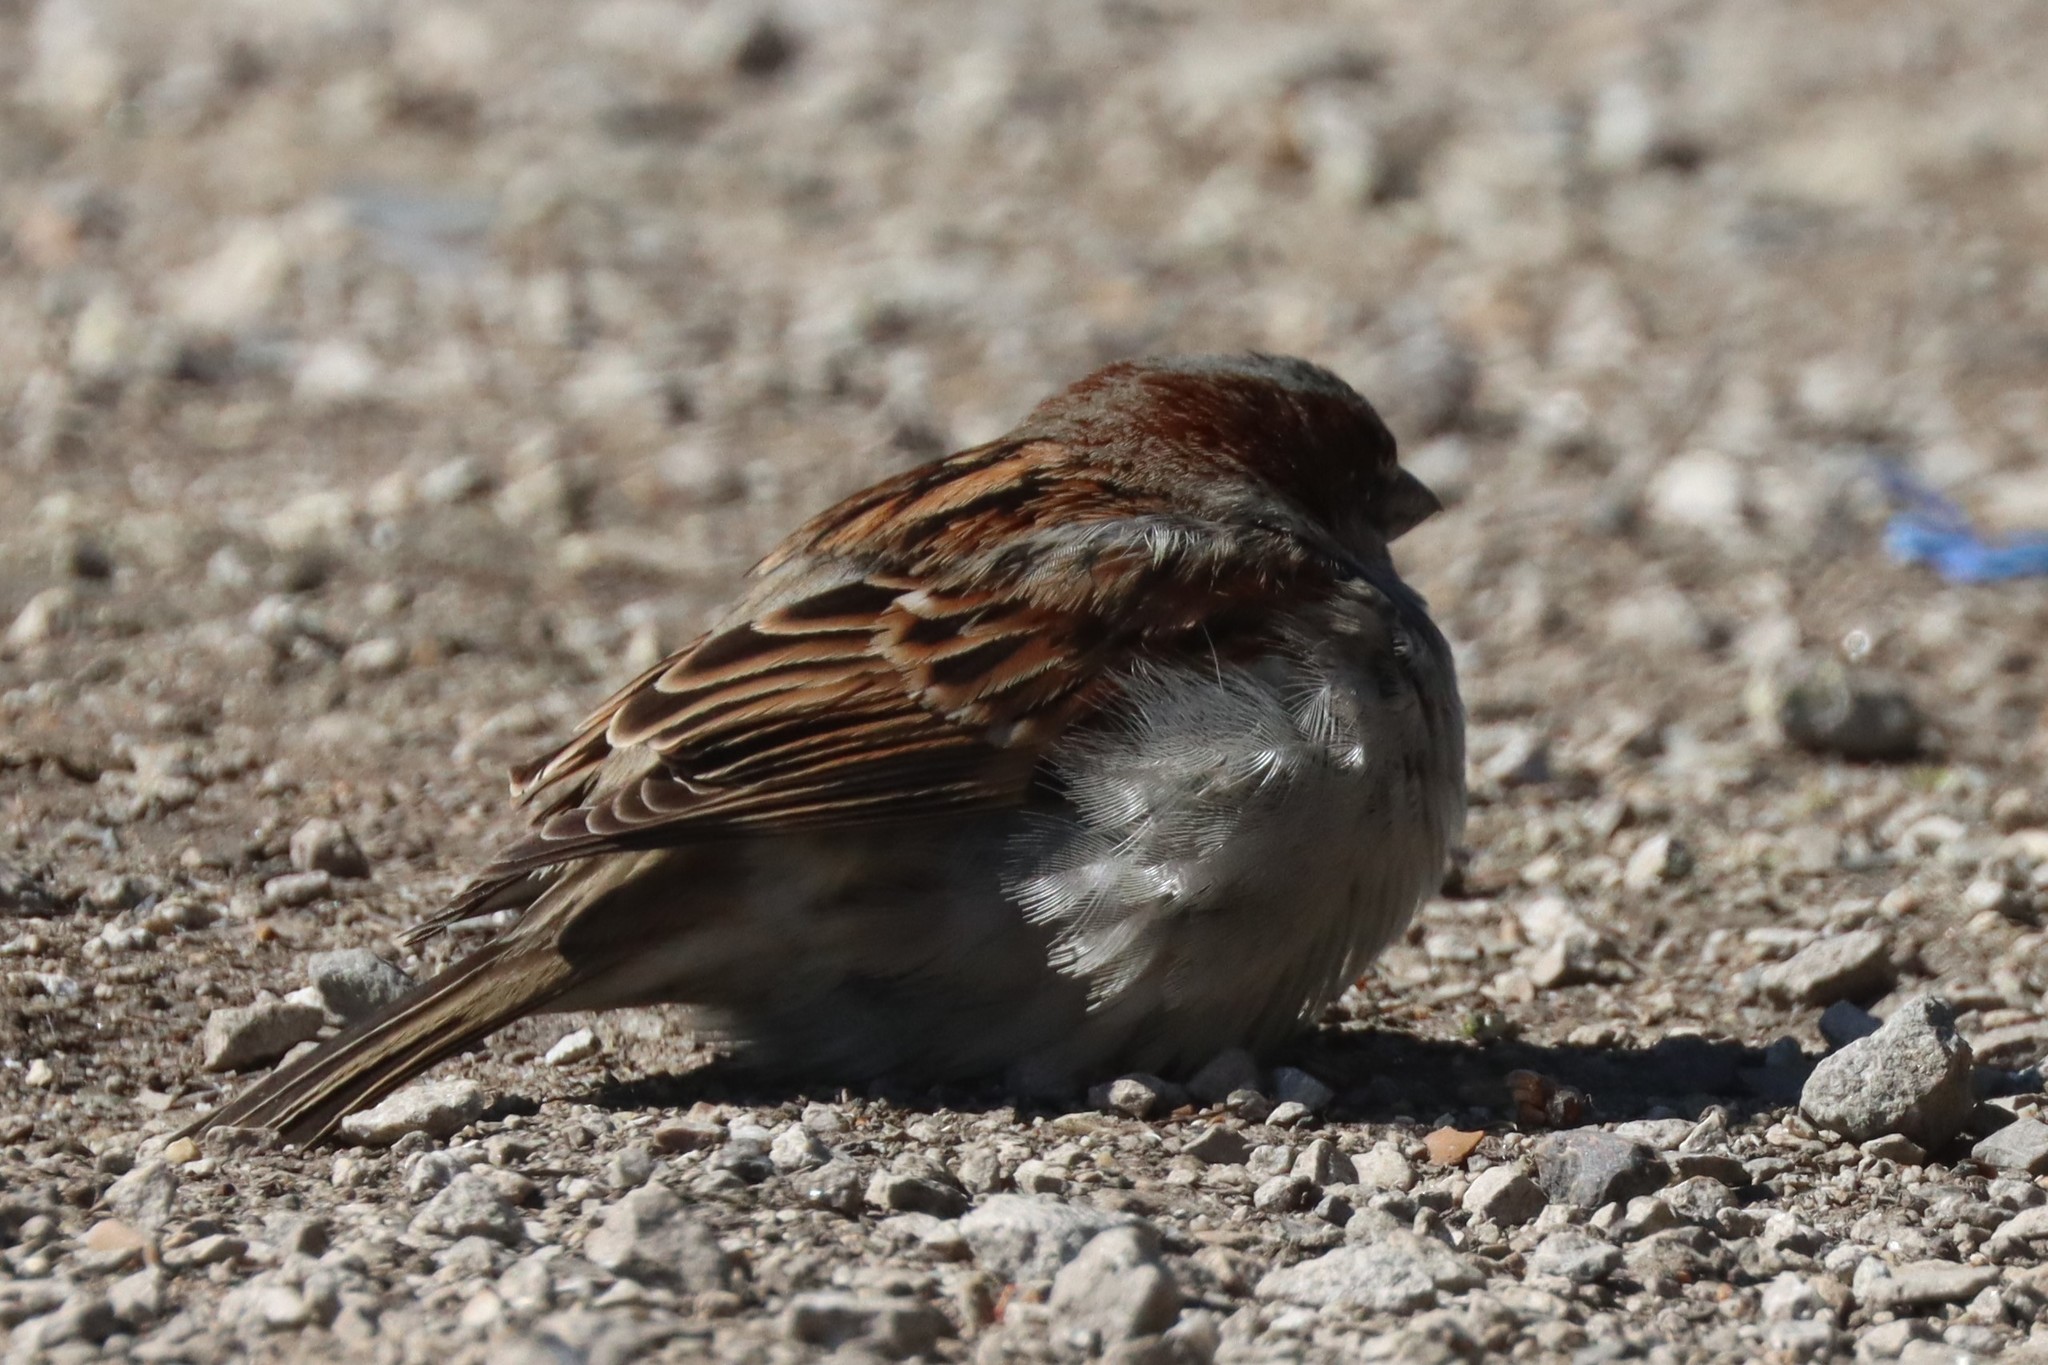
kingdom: Animalia
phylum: Chordata
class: Aves
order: Passeriformes
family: Passeridae
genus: Passer
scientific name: Passer domesticus
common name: House sparrow
